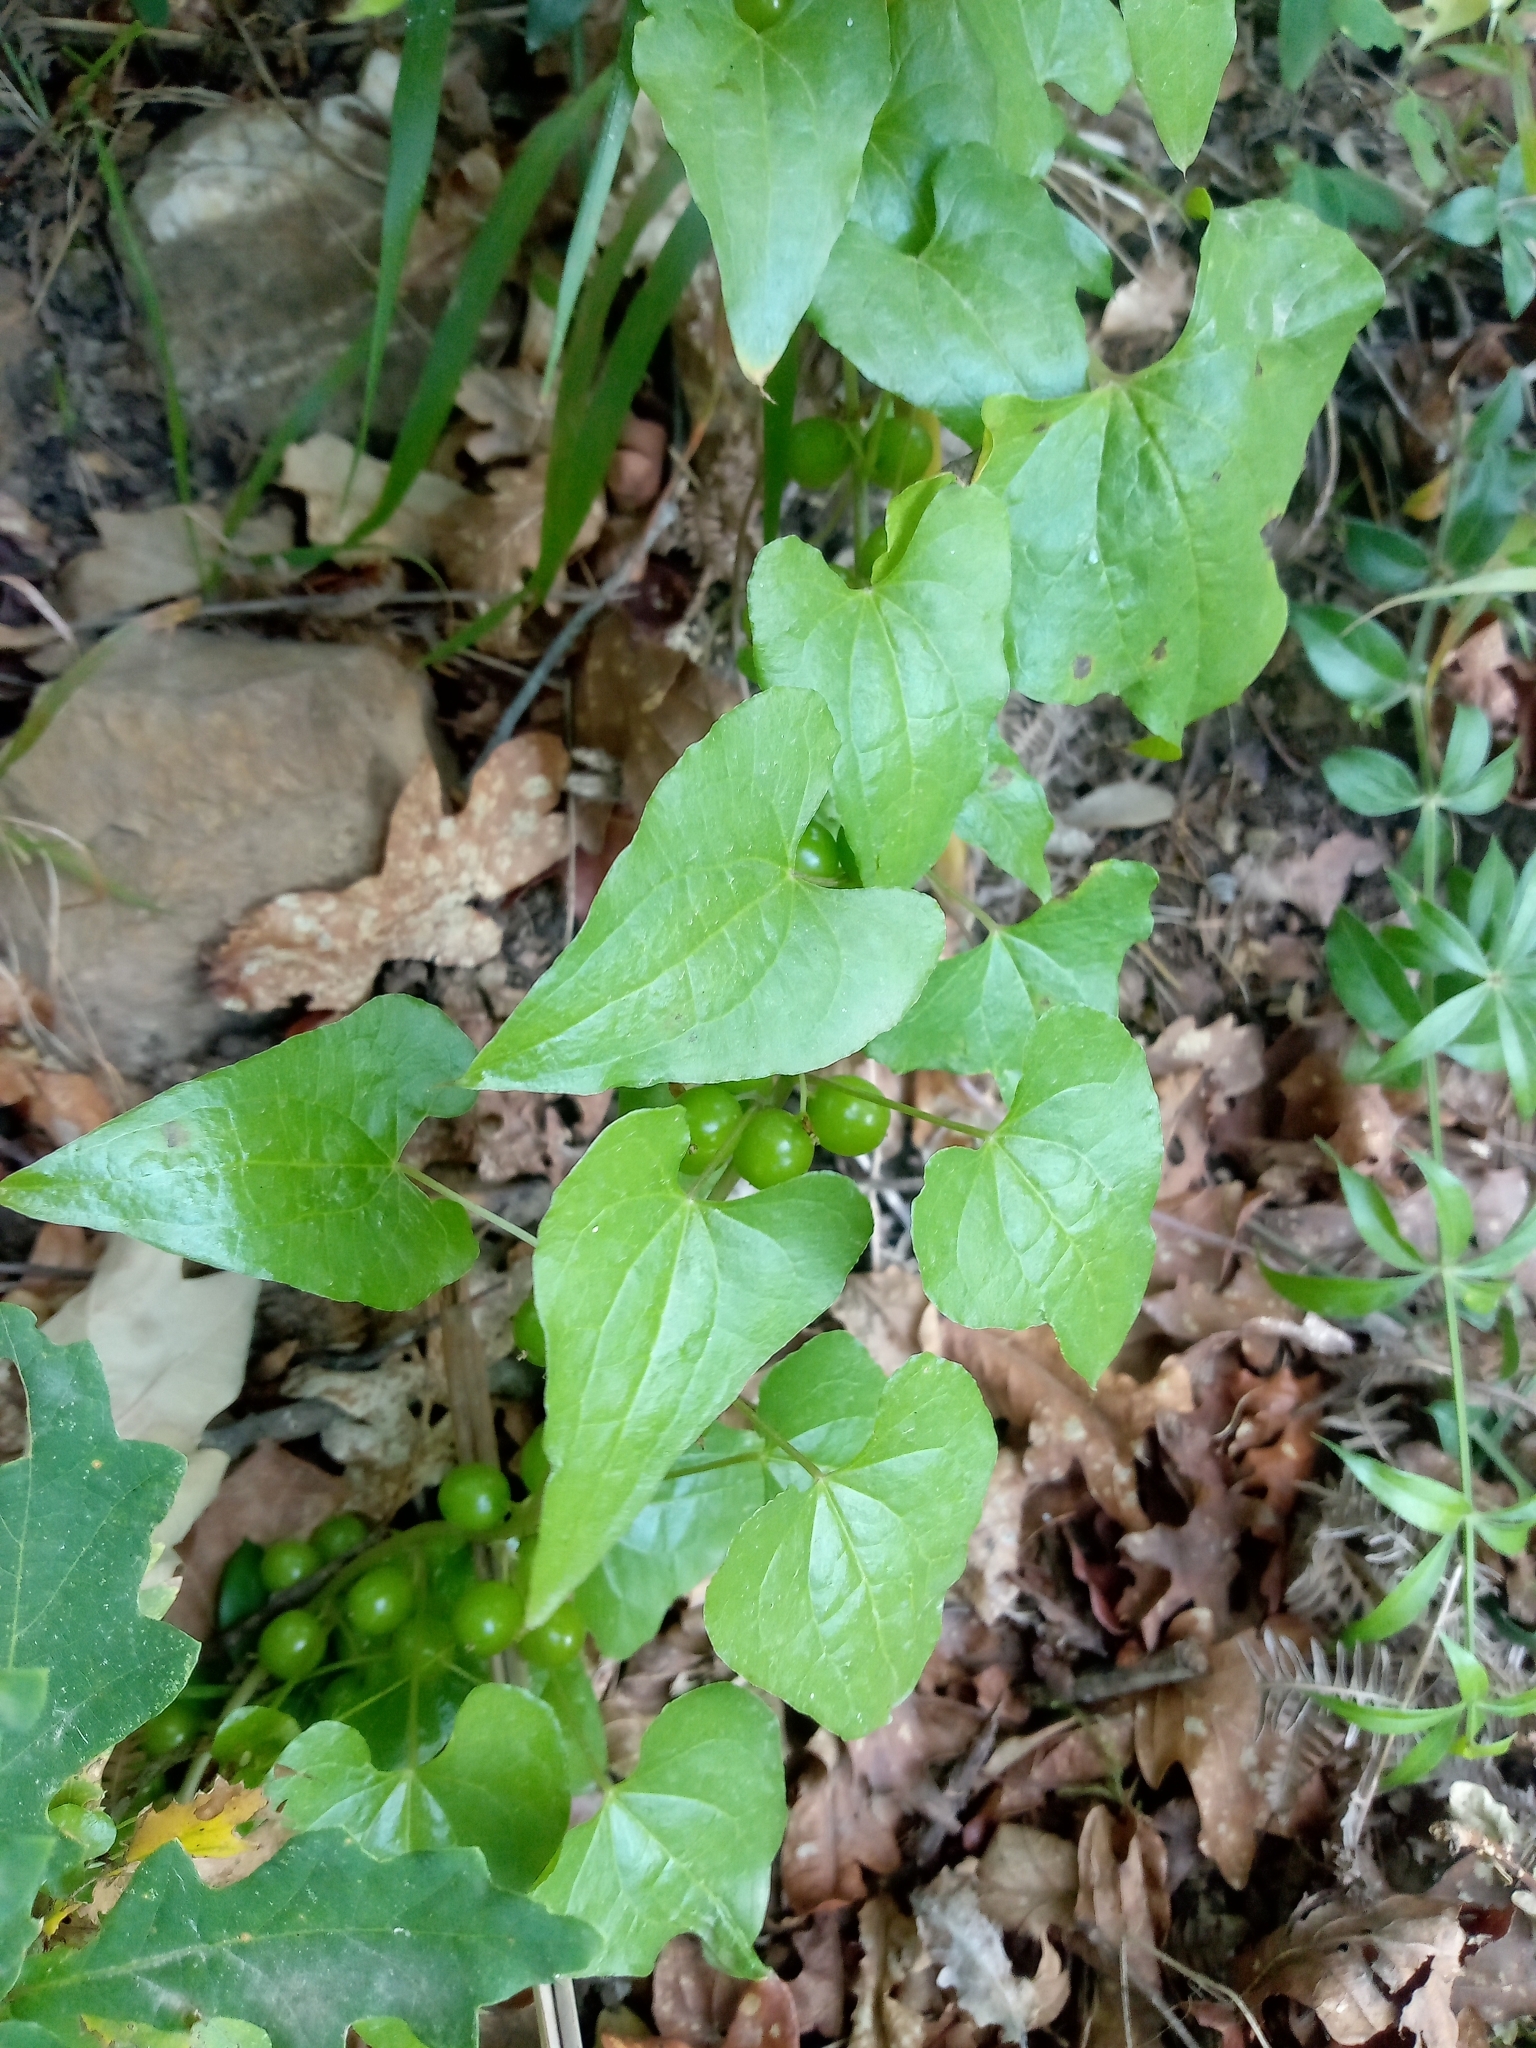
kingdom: Plantae
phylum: Tracheophyta
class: Liliopsida
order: Dioscoreales
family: Dioscoreaceae
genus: Dioscorea
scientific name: Dioscorea communis
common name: Black-bindweed
